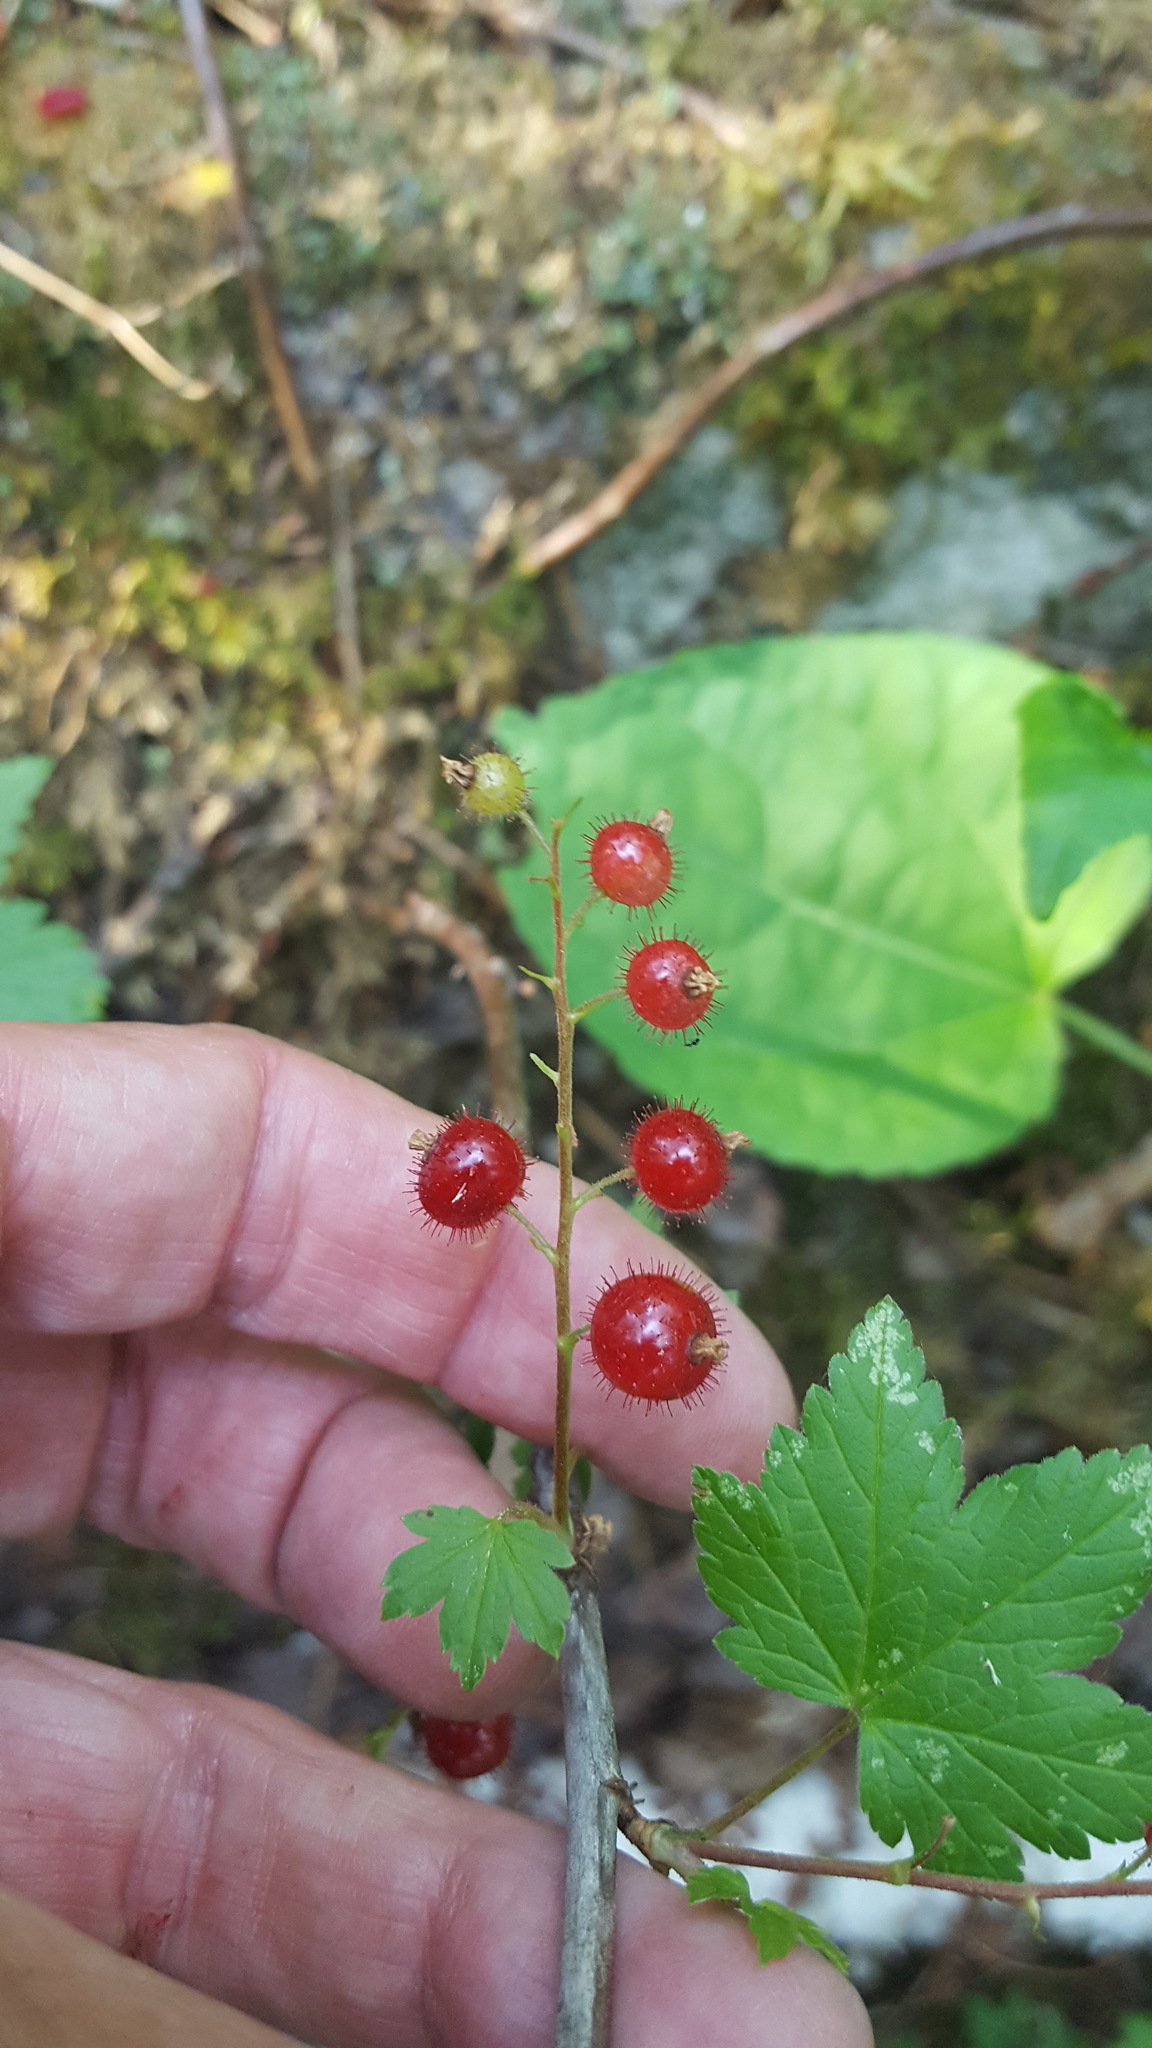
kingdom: Plantae
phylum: Tracheophyta
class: Magnoliopsida
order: Saxifragales
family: Grossulariaceae
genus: Ribes
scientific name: Ribes glandulosum
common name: Skunk currant
